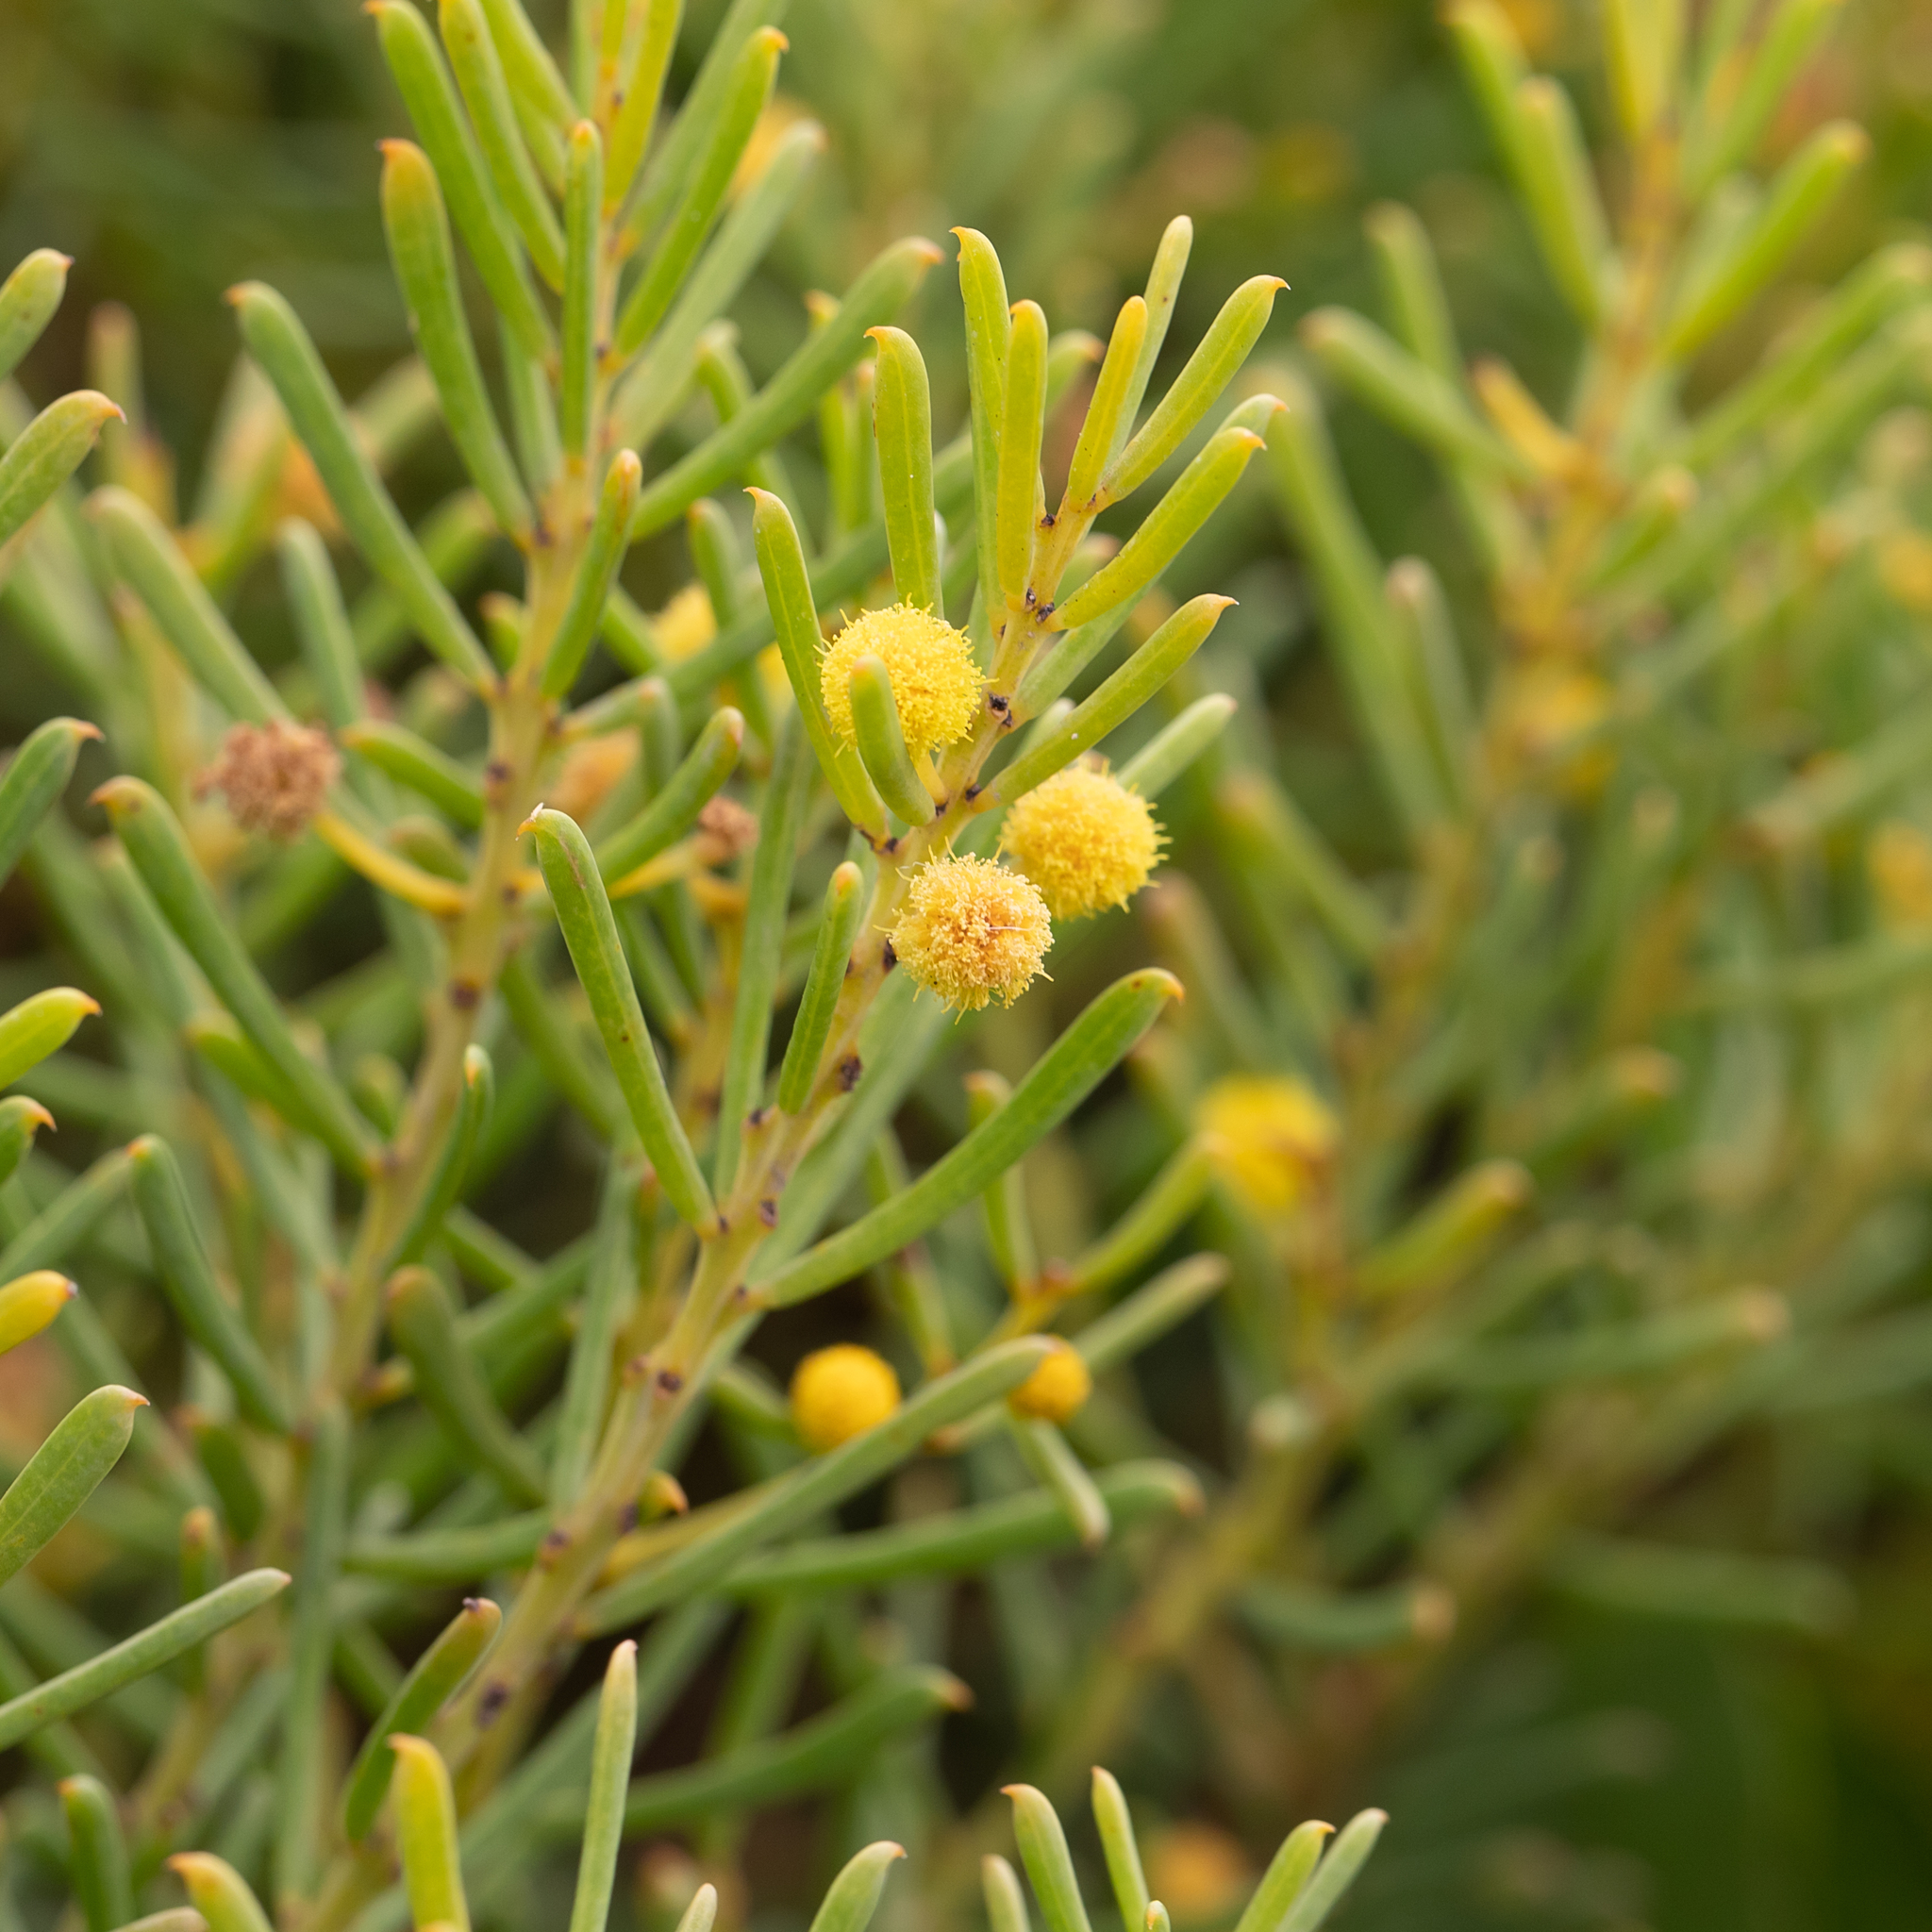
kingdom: Plantae
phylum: Tracheophyta
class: Magnoliopsida
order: Fabales
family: Fabaceae
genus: Acacia
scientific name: Acacia nematophylla
